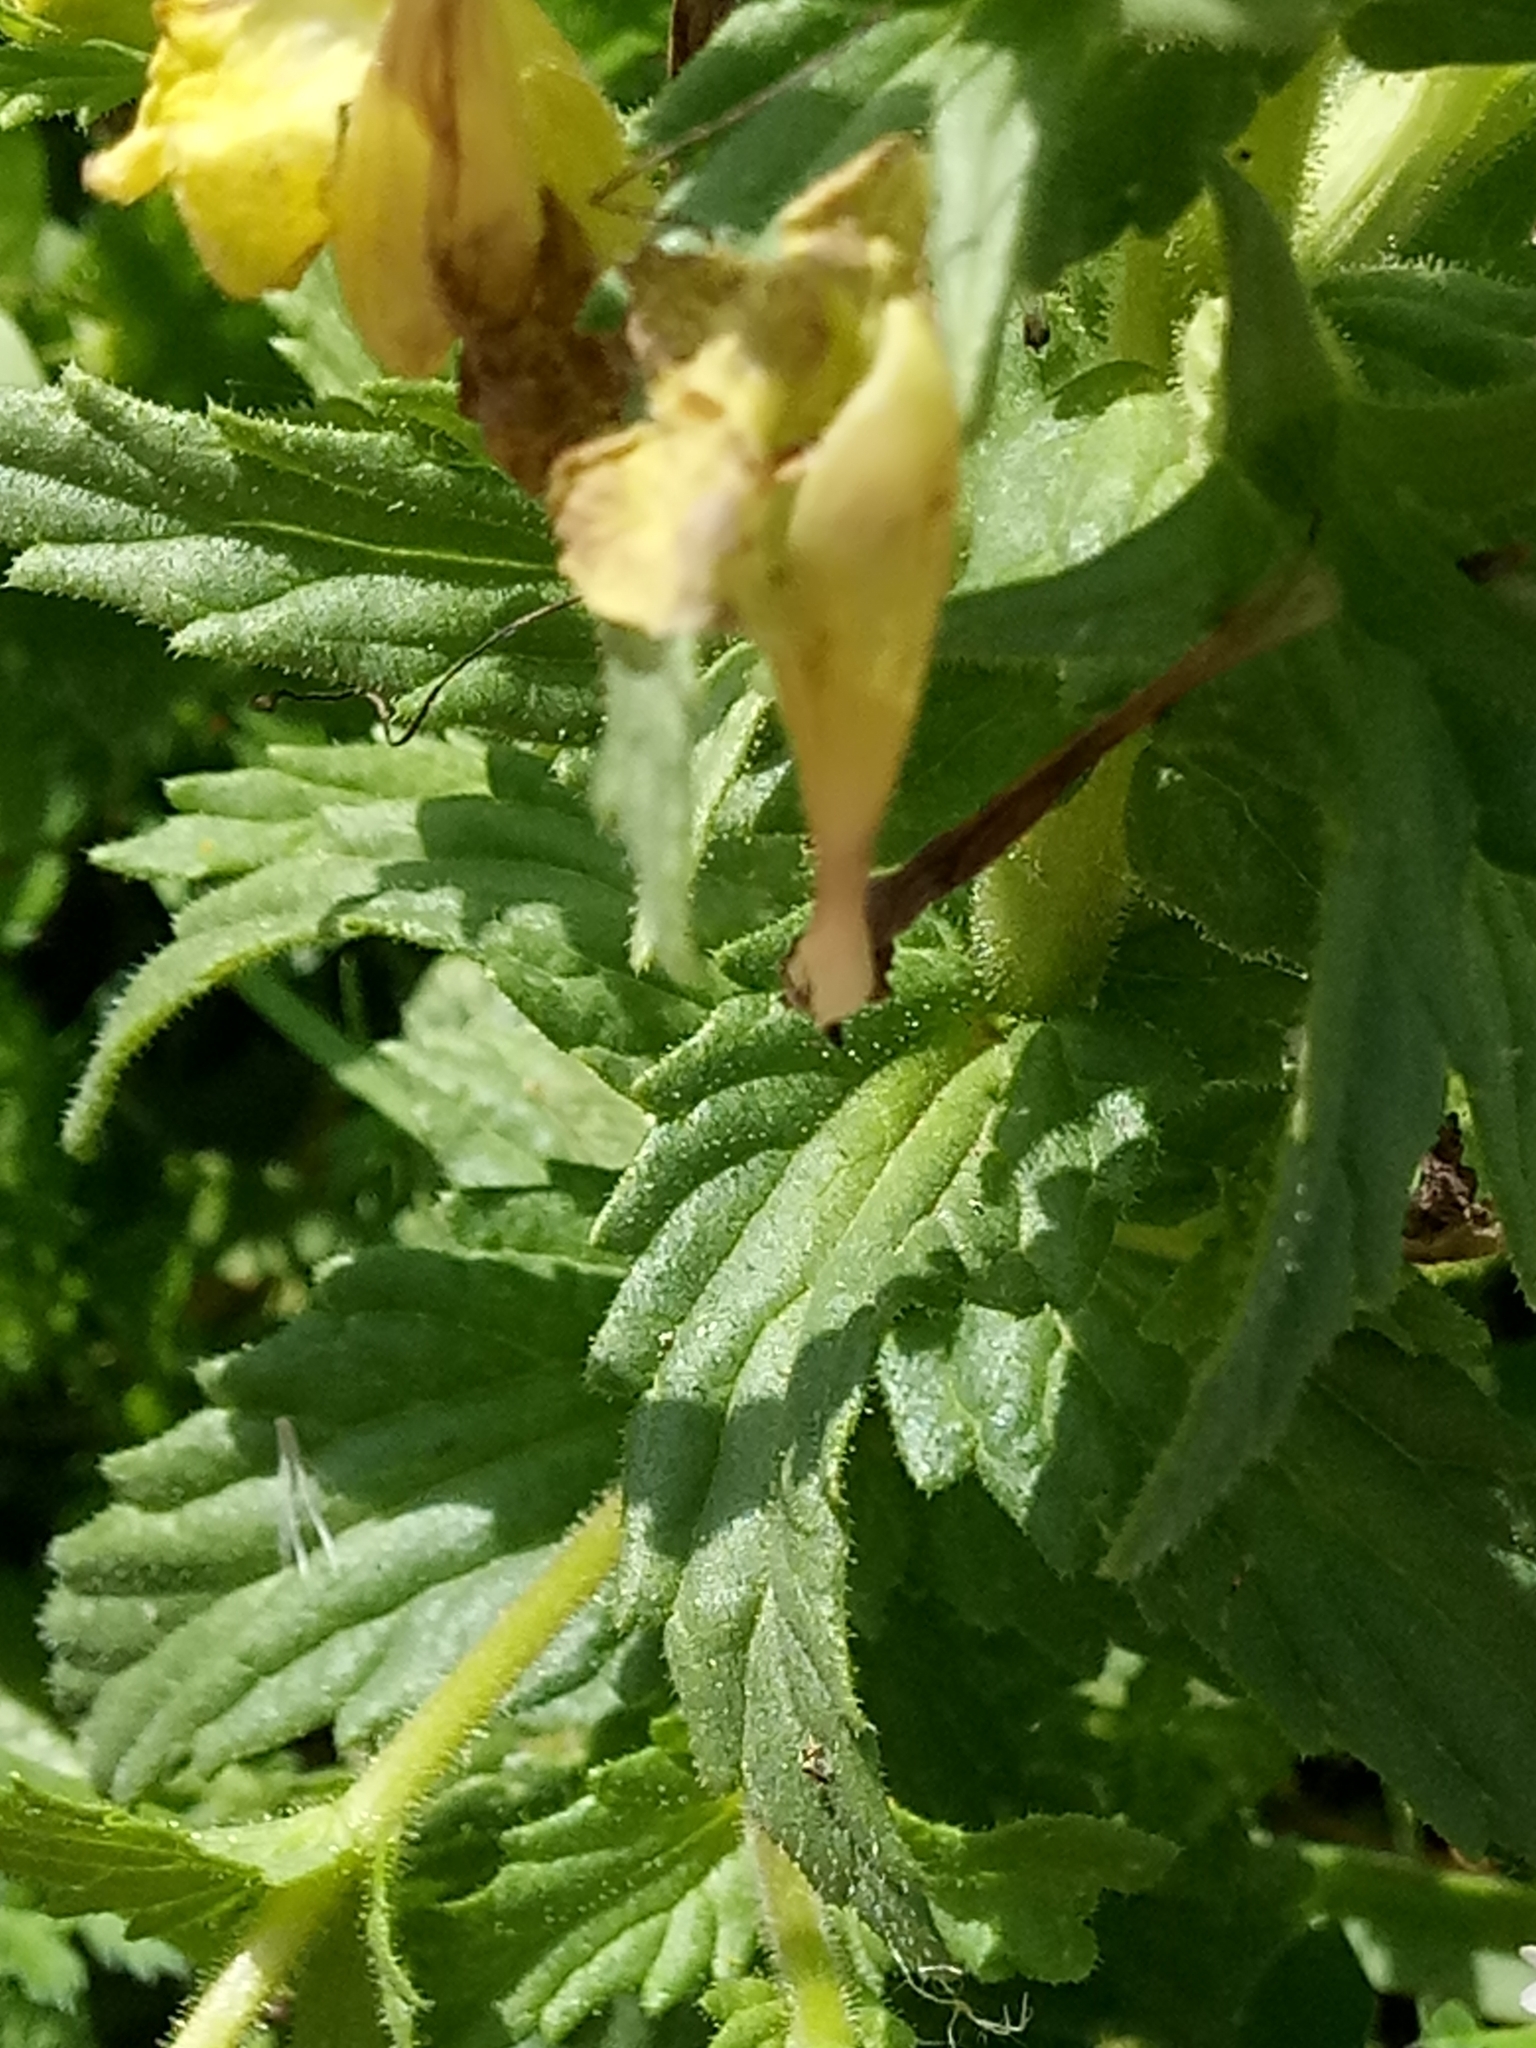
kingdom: Plantae
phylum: Tracheophyta
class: Magnoliopsida
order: Lamiales
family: Orobanchaceae
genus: Bellardia
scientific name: Bellardia viscosa
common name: Sticky parentucellia
